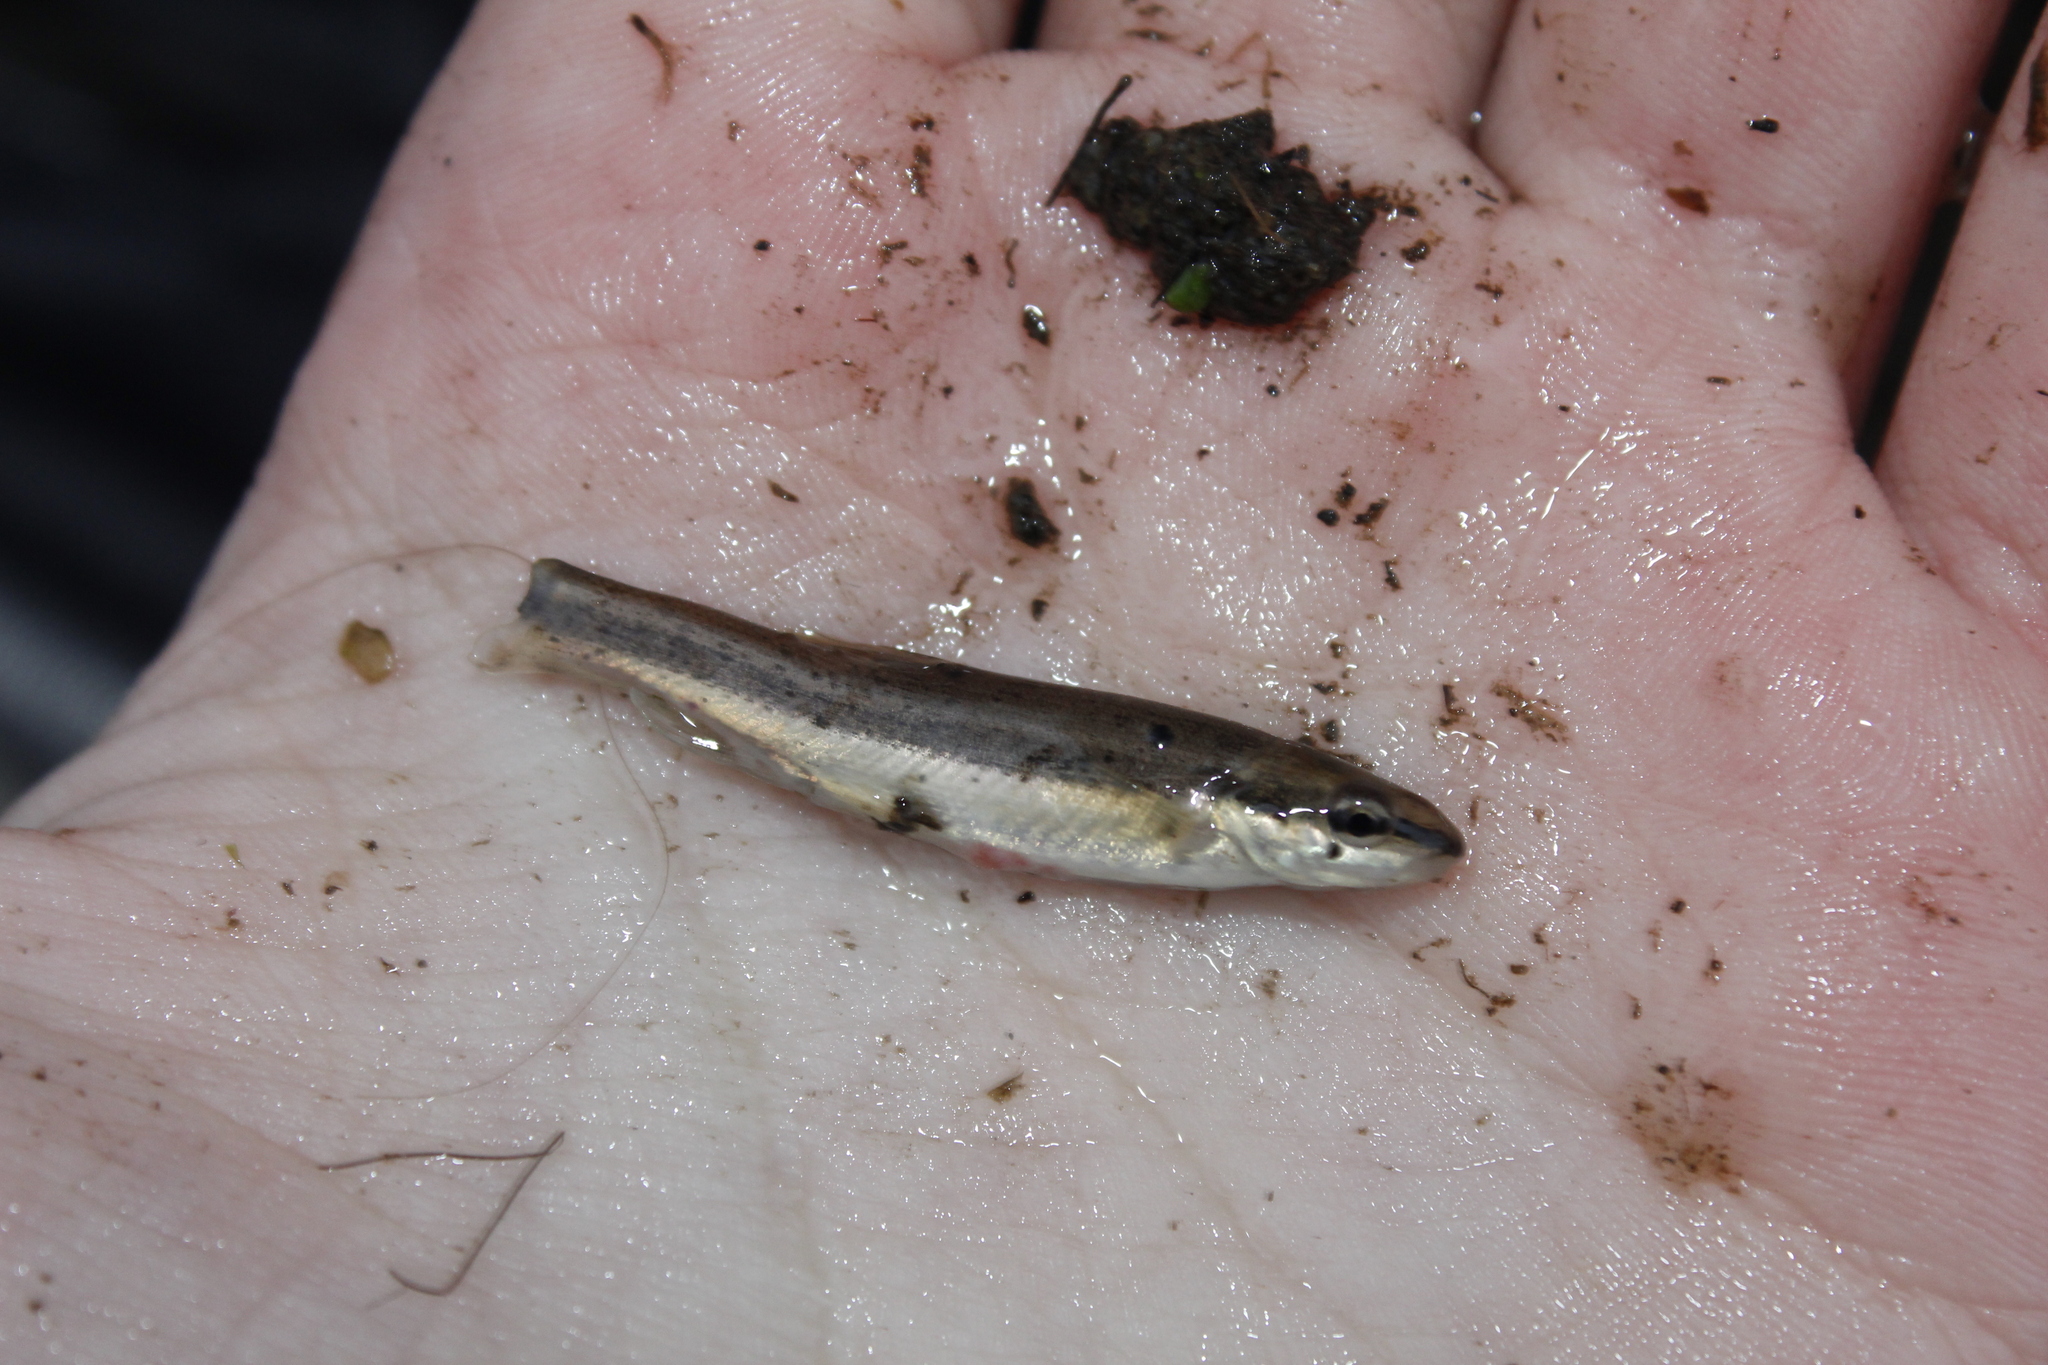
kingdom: Animalia
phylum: Chordata
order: Cypriniformes
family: Cyprinidae
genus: Rhinichthys
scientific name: Rhinichthys atratulus
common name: Eastern blacknose dace
